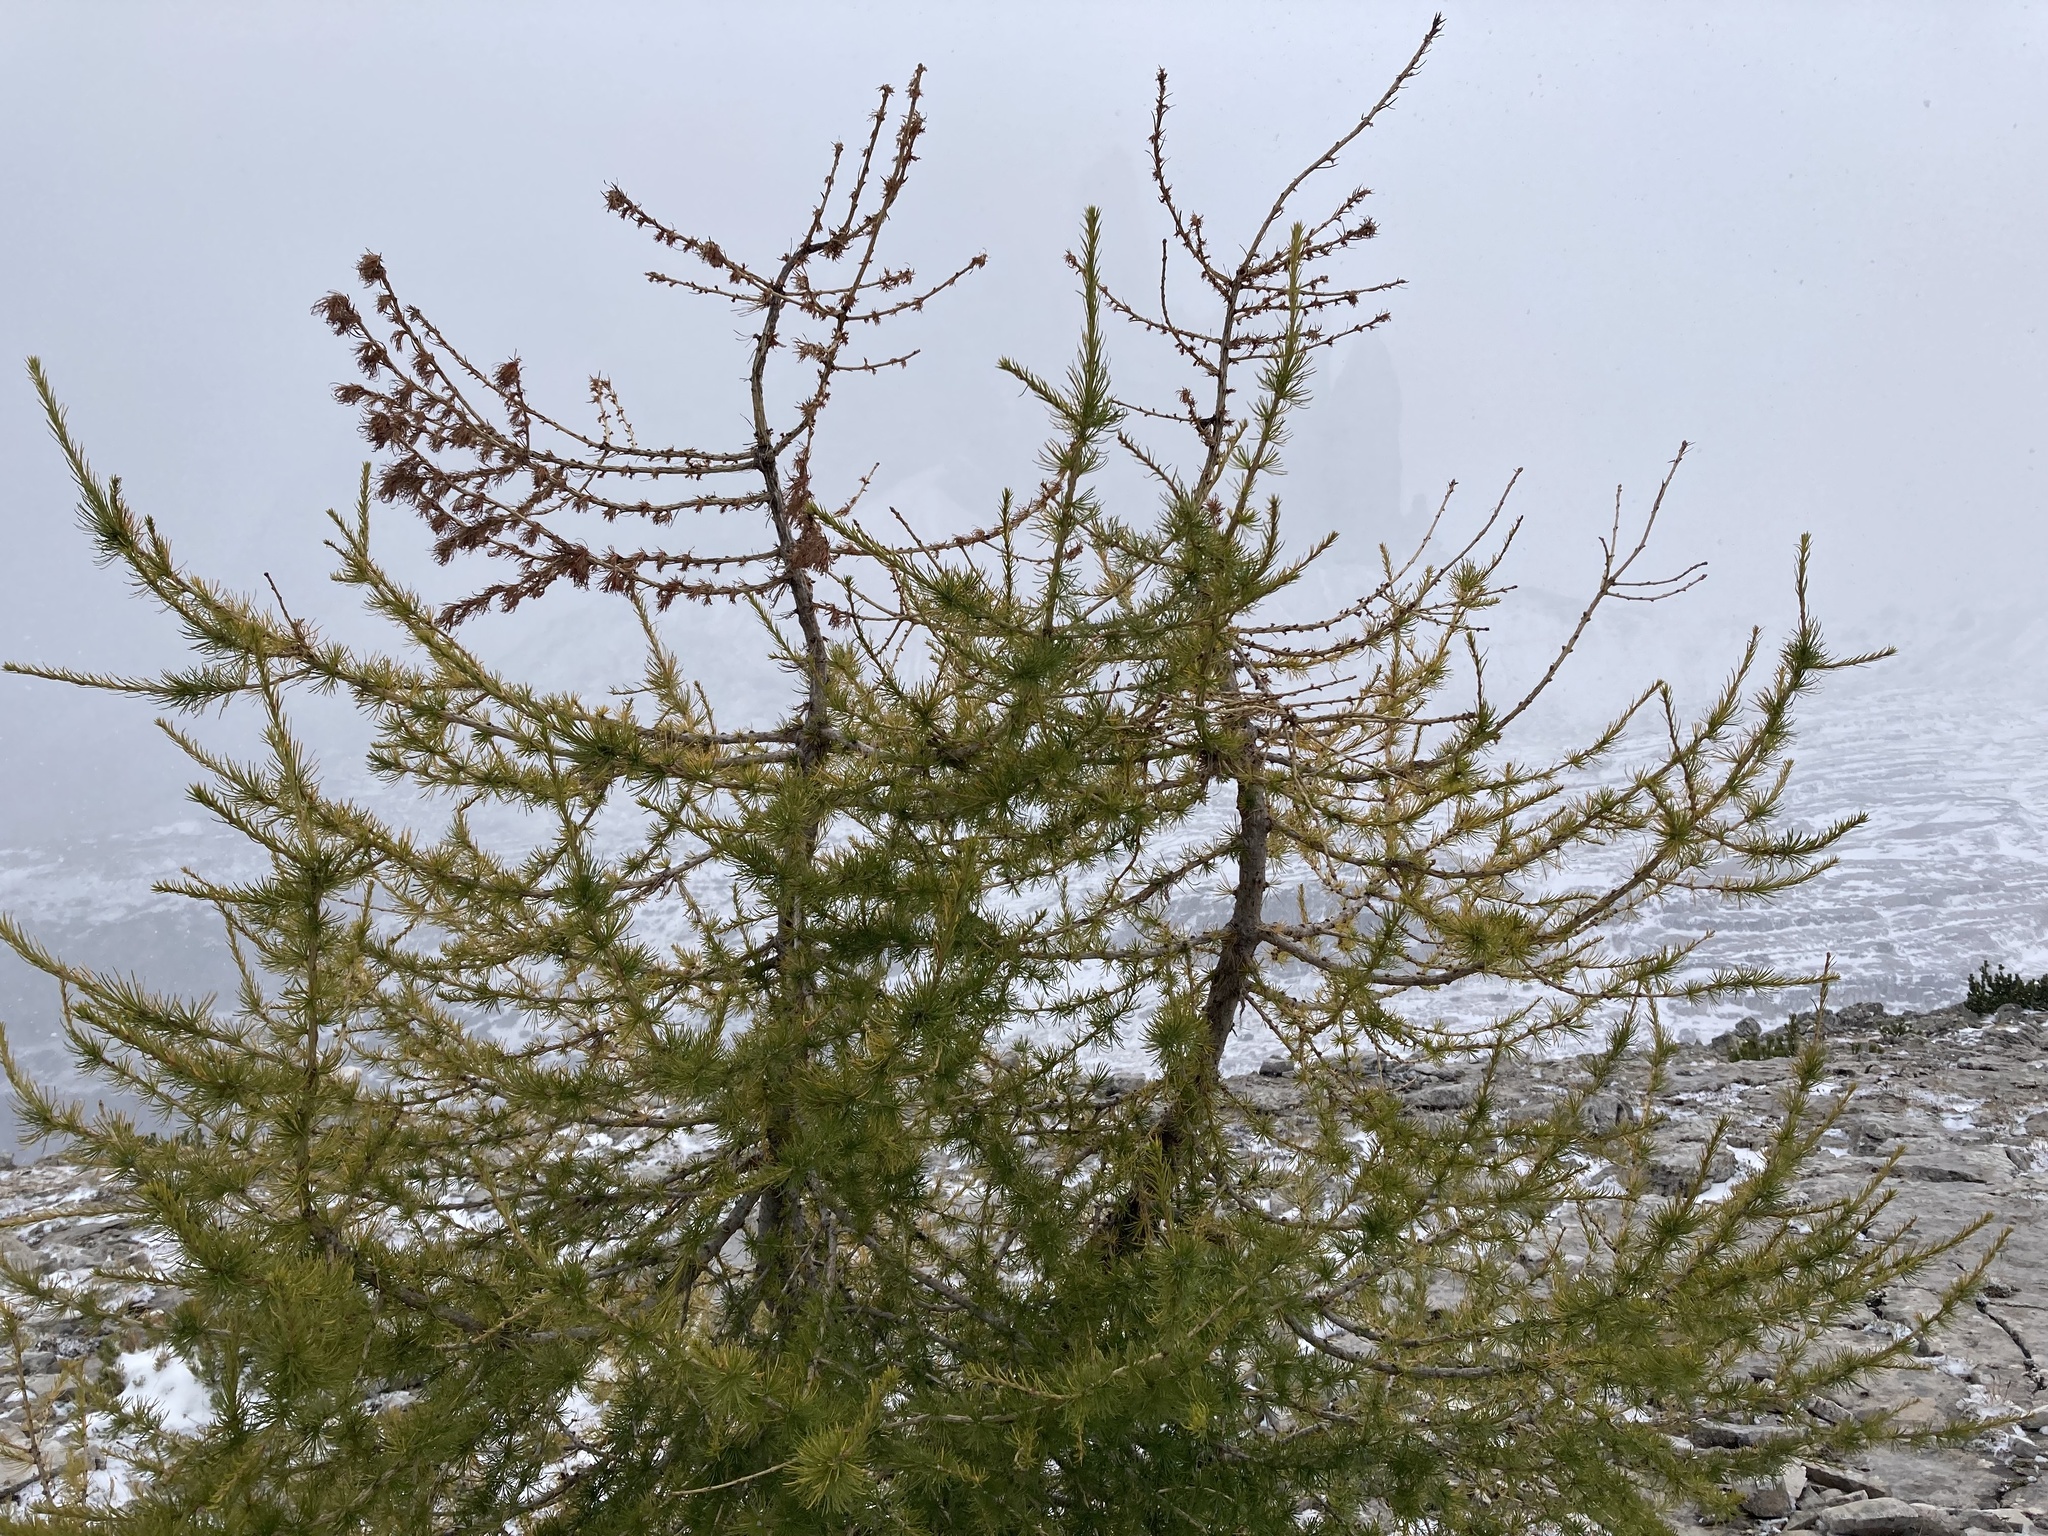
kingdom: Plantae
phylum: Tracheophyta
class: Pinopsida
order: Pinales
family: Pinaceae
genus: Larix
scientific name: Larix decidua
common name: European larch
